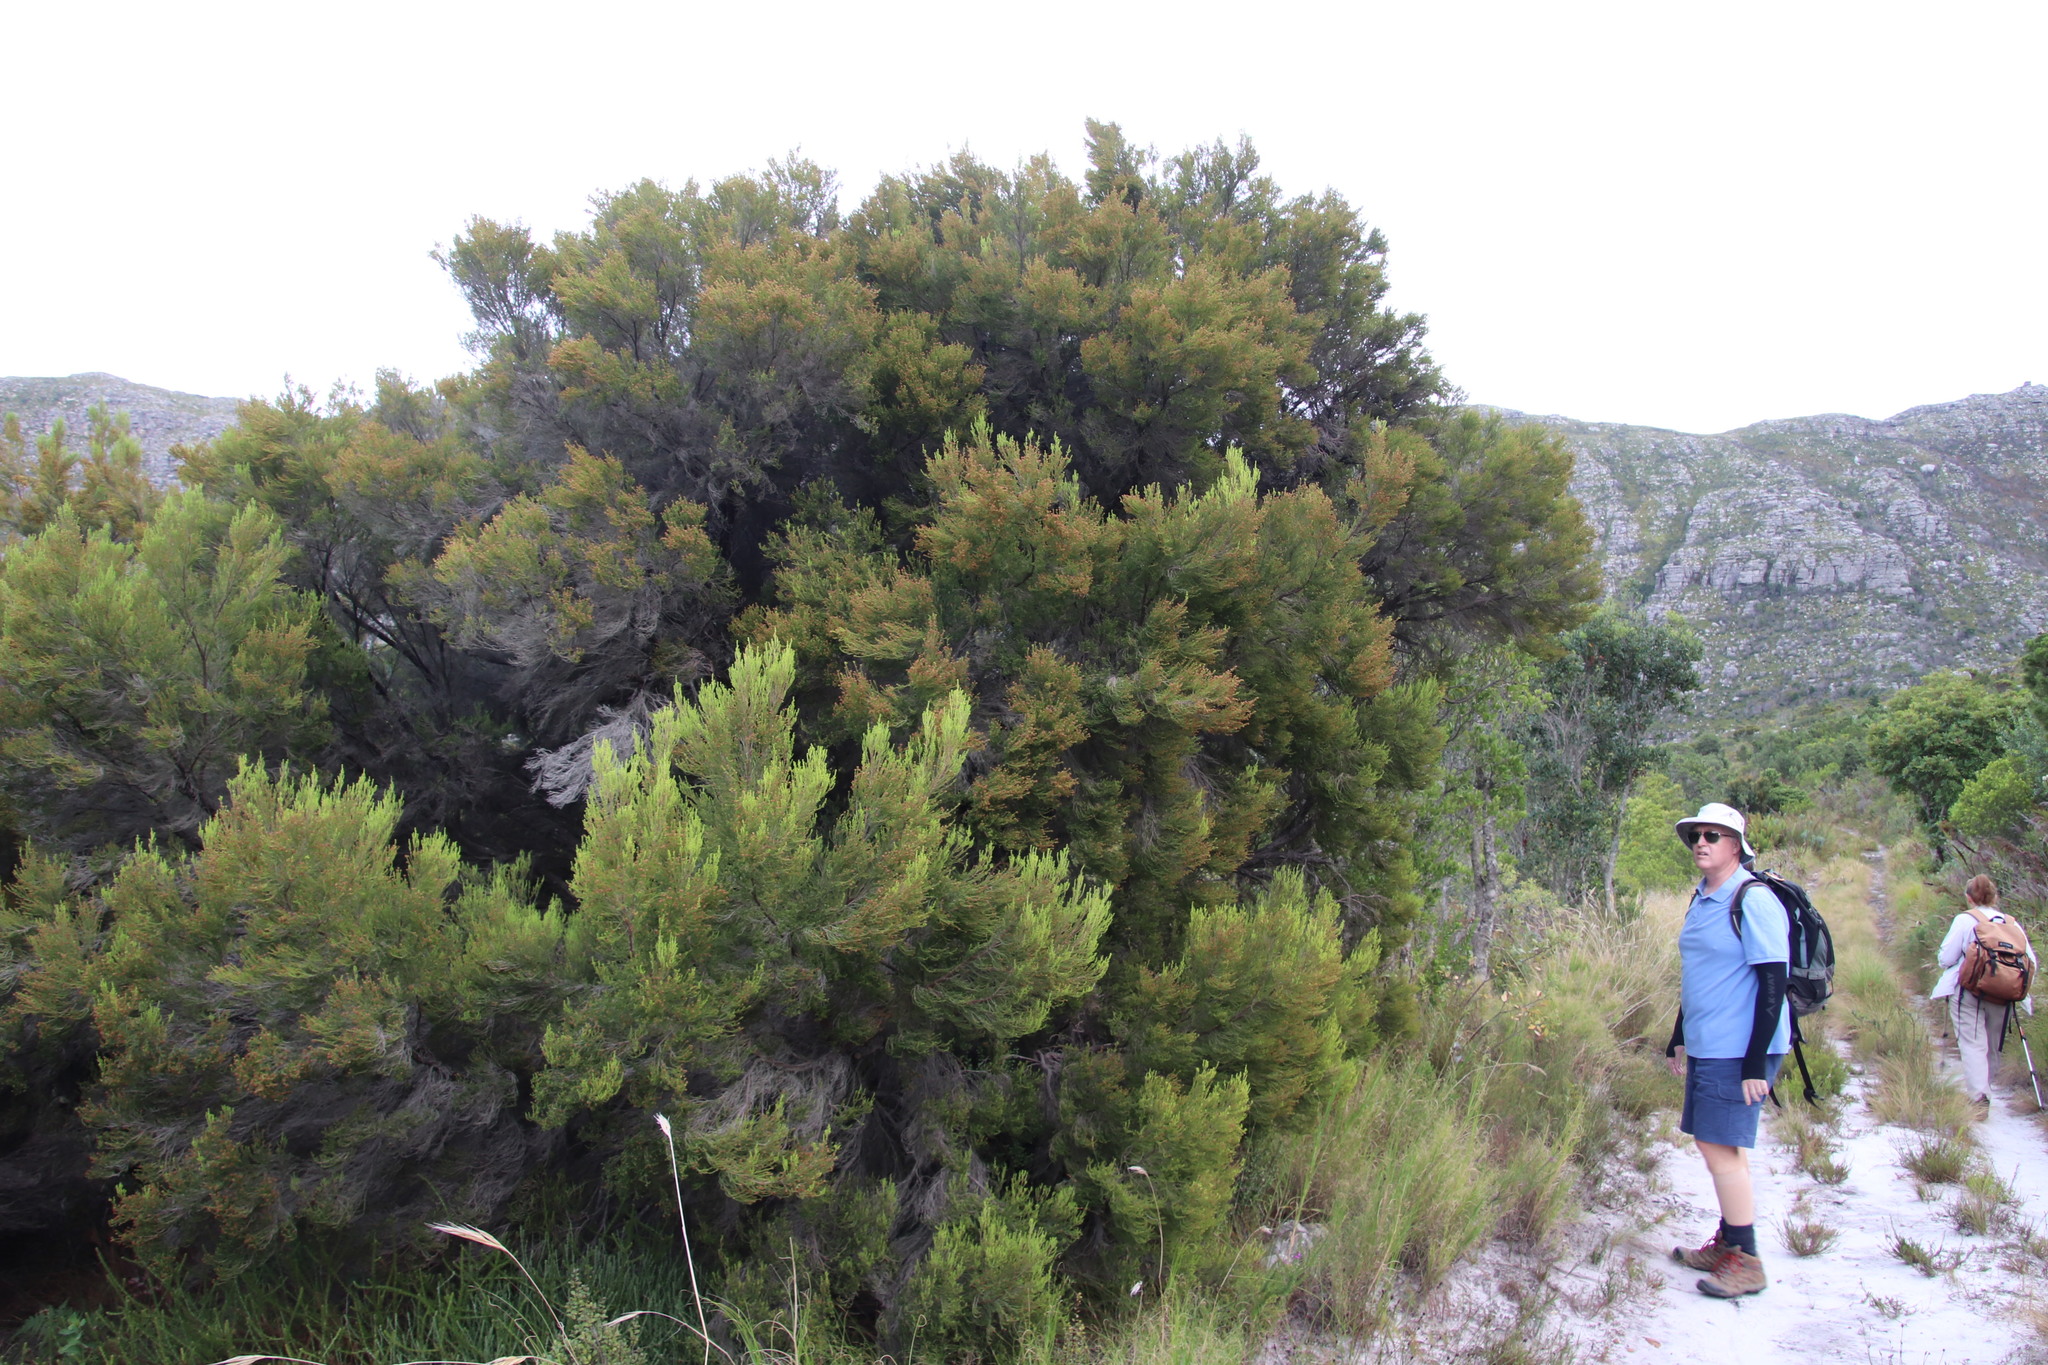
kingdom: Plantae
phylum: Tracheophyta
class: Magnoliopsida
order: Ericales
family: Ericaceae
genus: Erica
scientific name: Erica tristis
